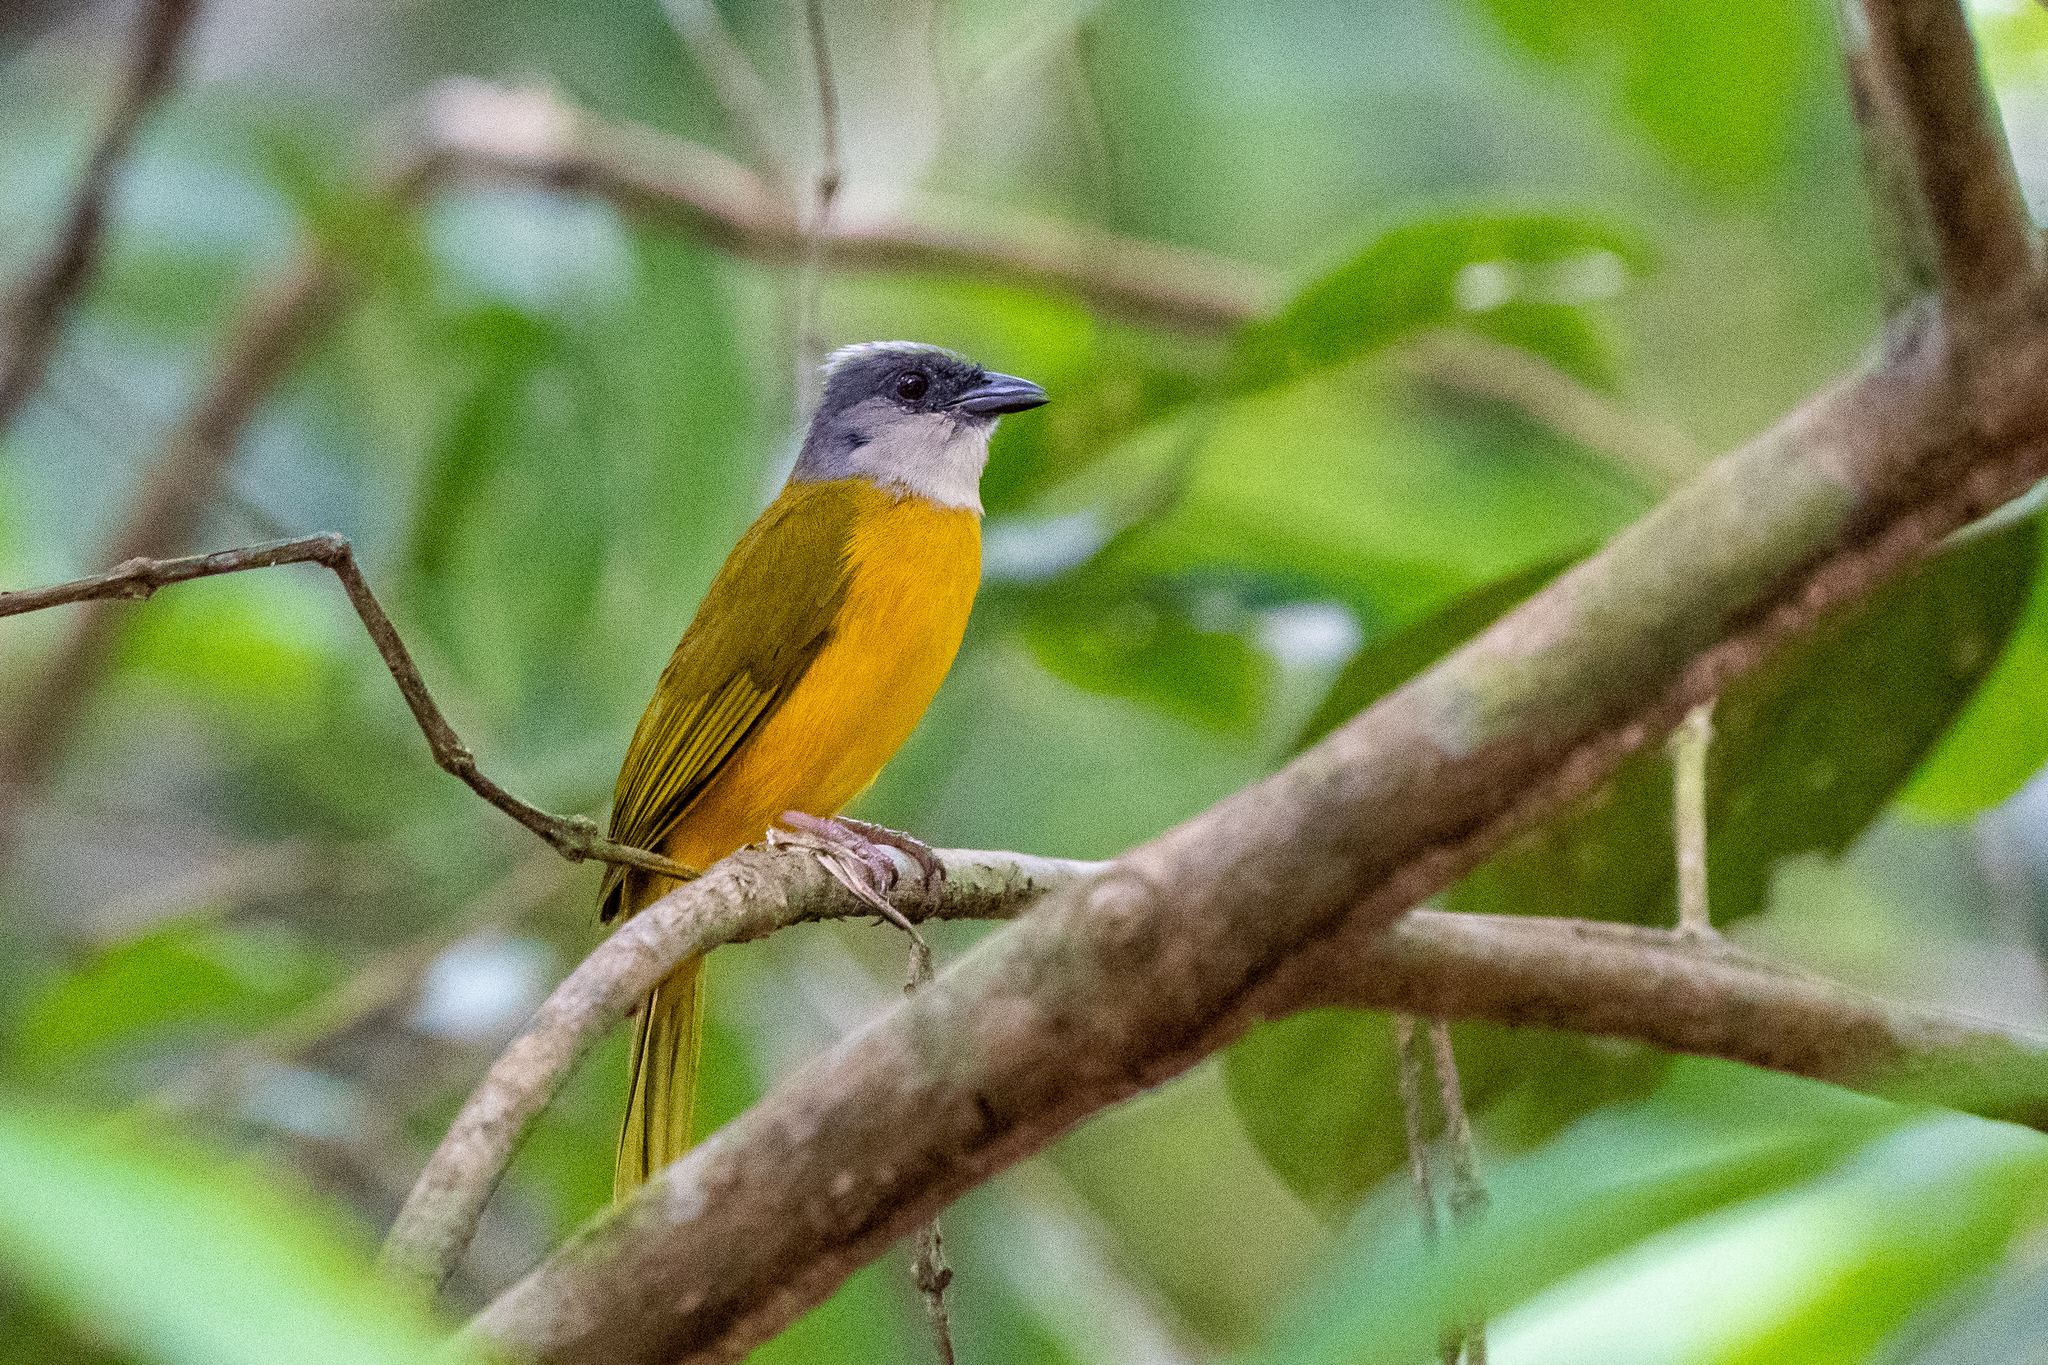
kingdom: Animalia
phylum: Chordata
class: Aves
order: Passeriformes
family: Thraupidae
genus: Eucometis
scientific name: Eucometis penicillata
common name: Grey-headed tanager
